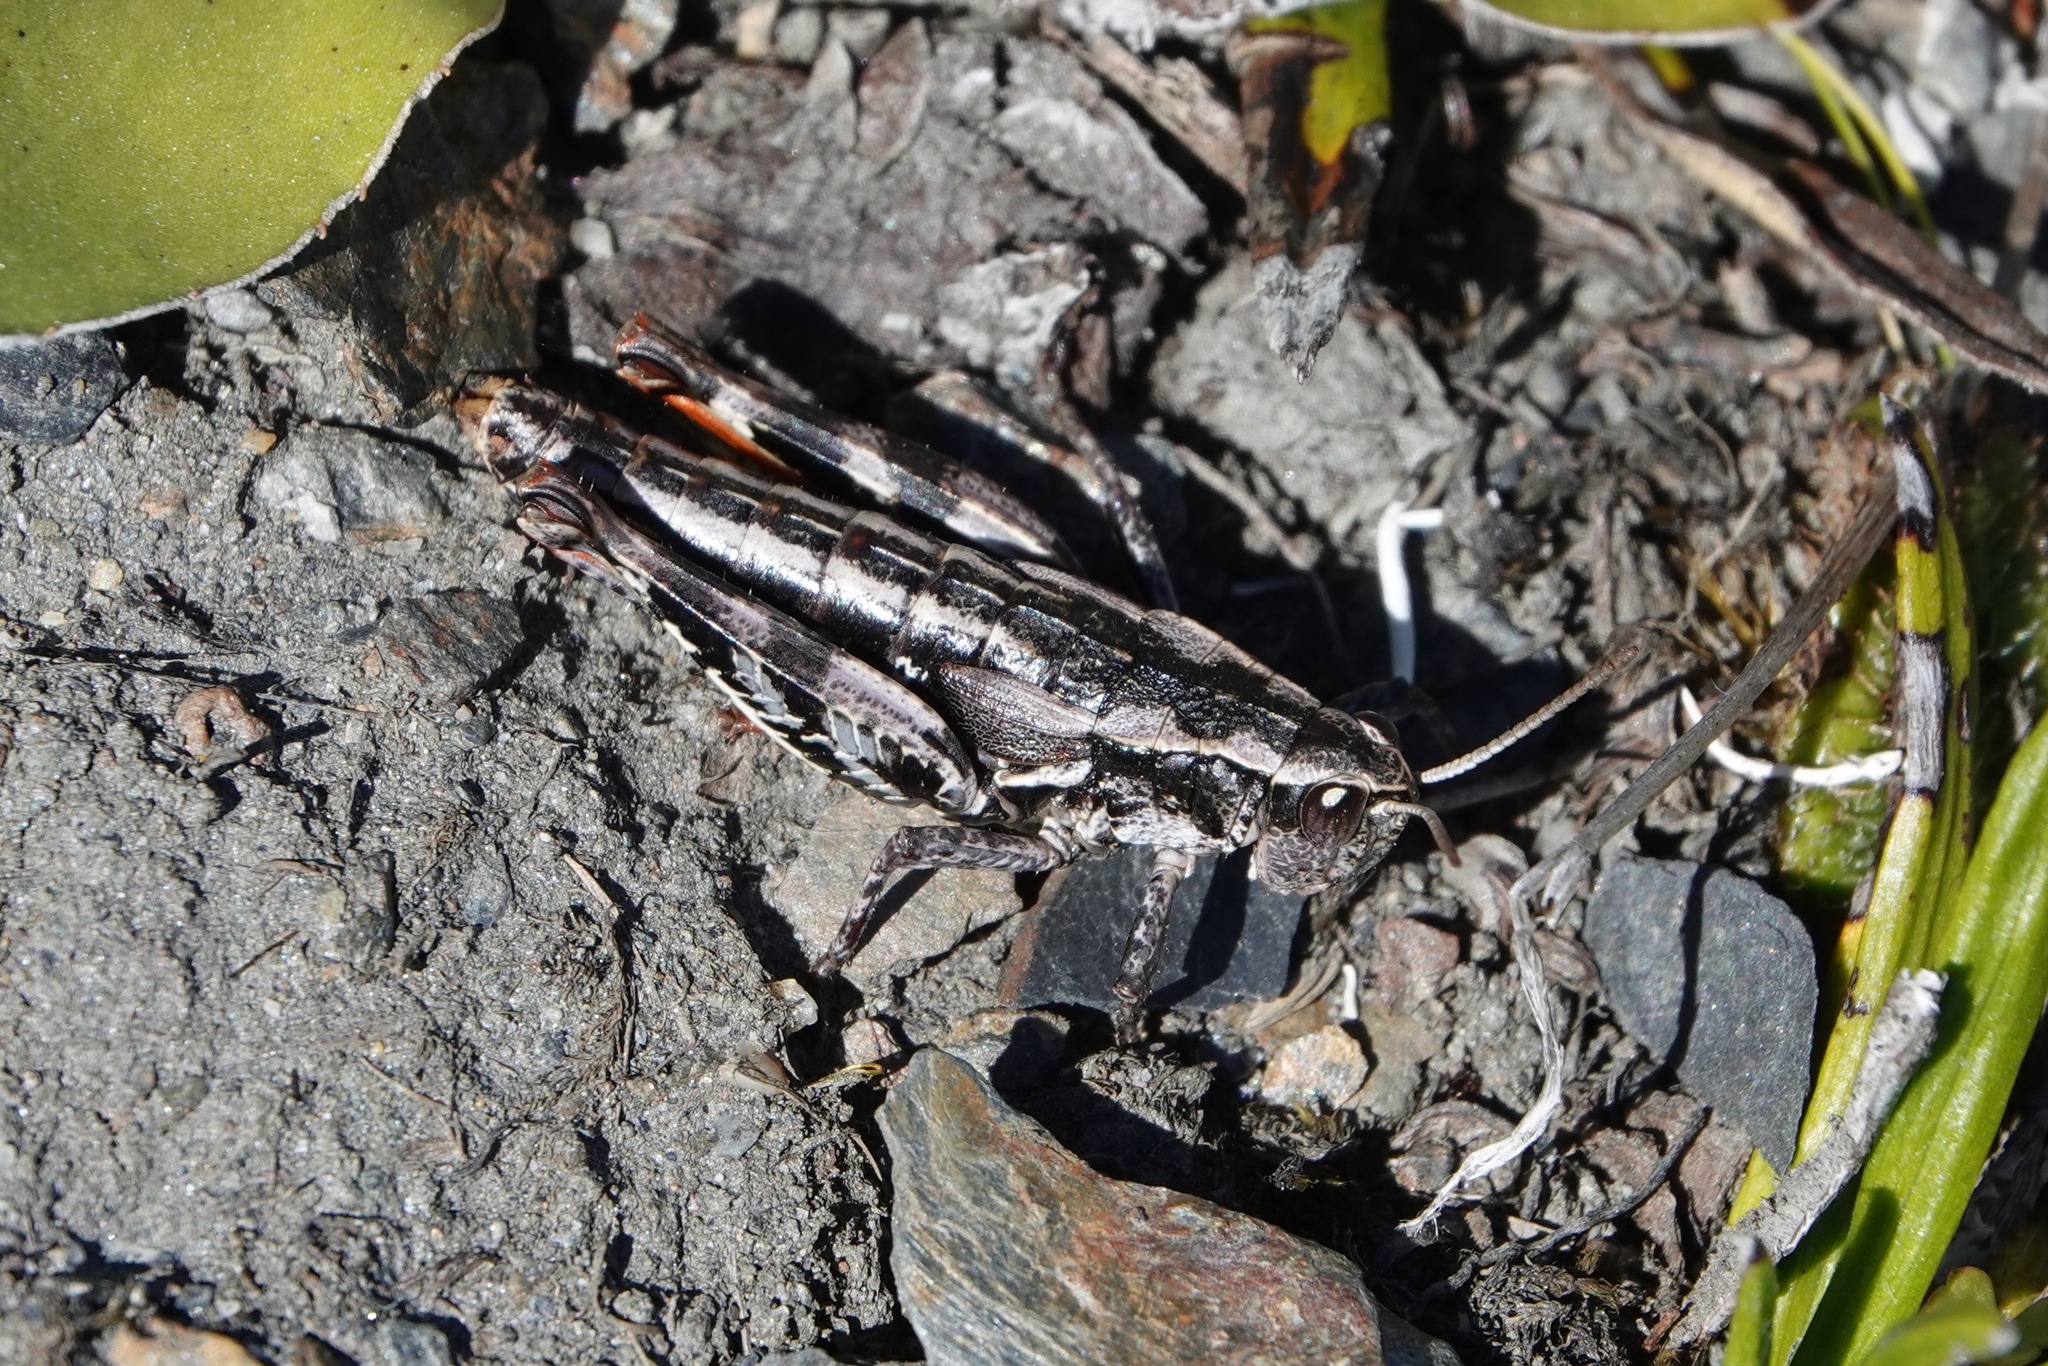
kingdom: Animalia
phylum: Arthropoda
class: Insecta
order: Orthoptera
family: Acrididae
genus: Sigaus
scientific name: Sigaus
